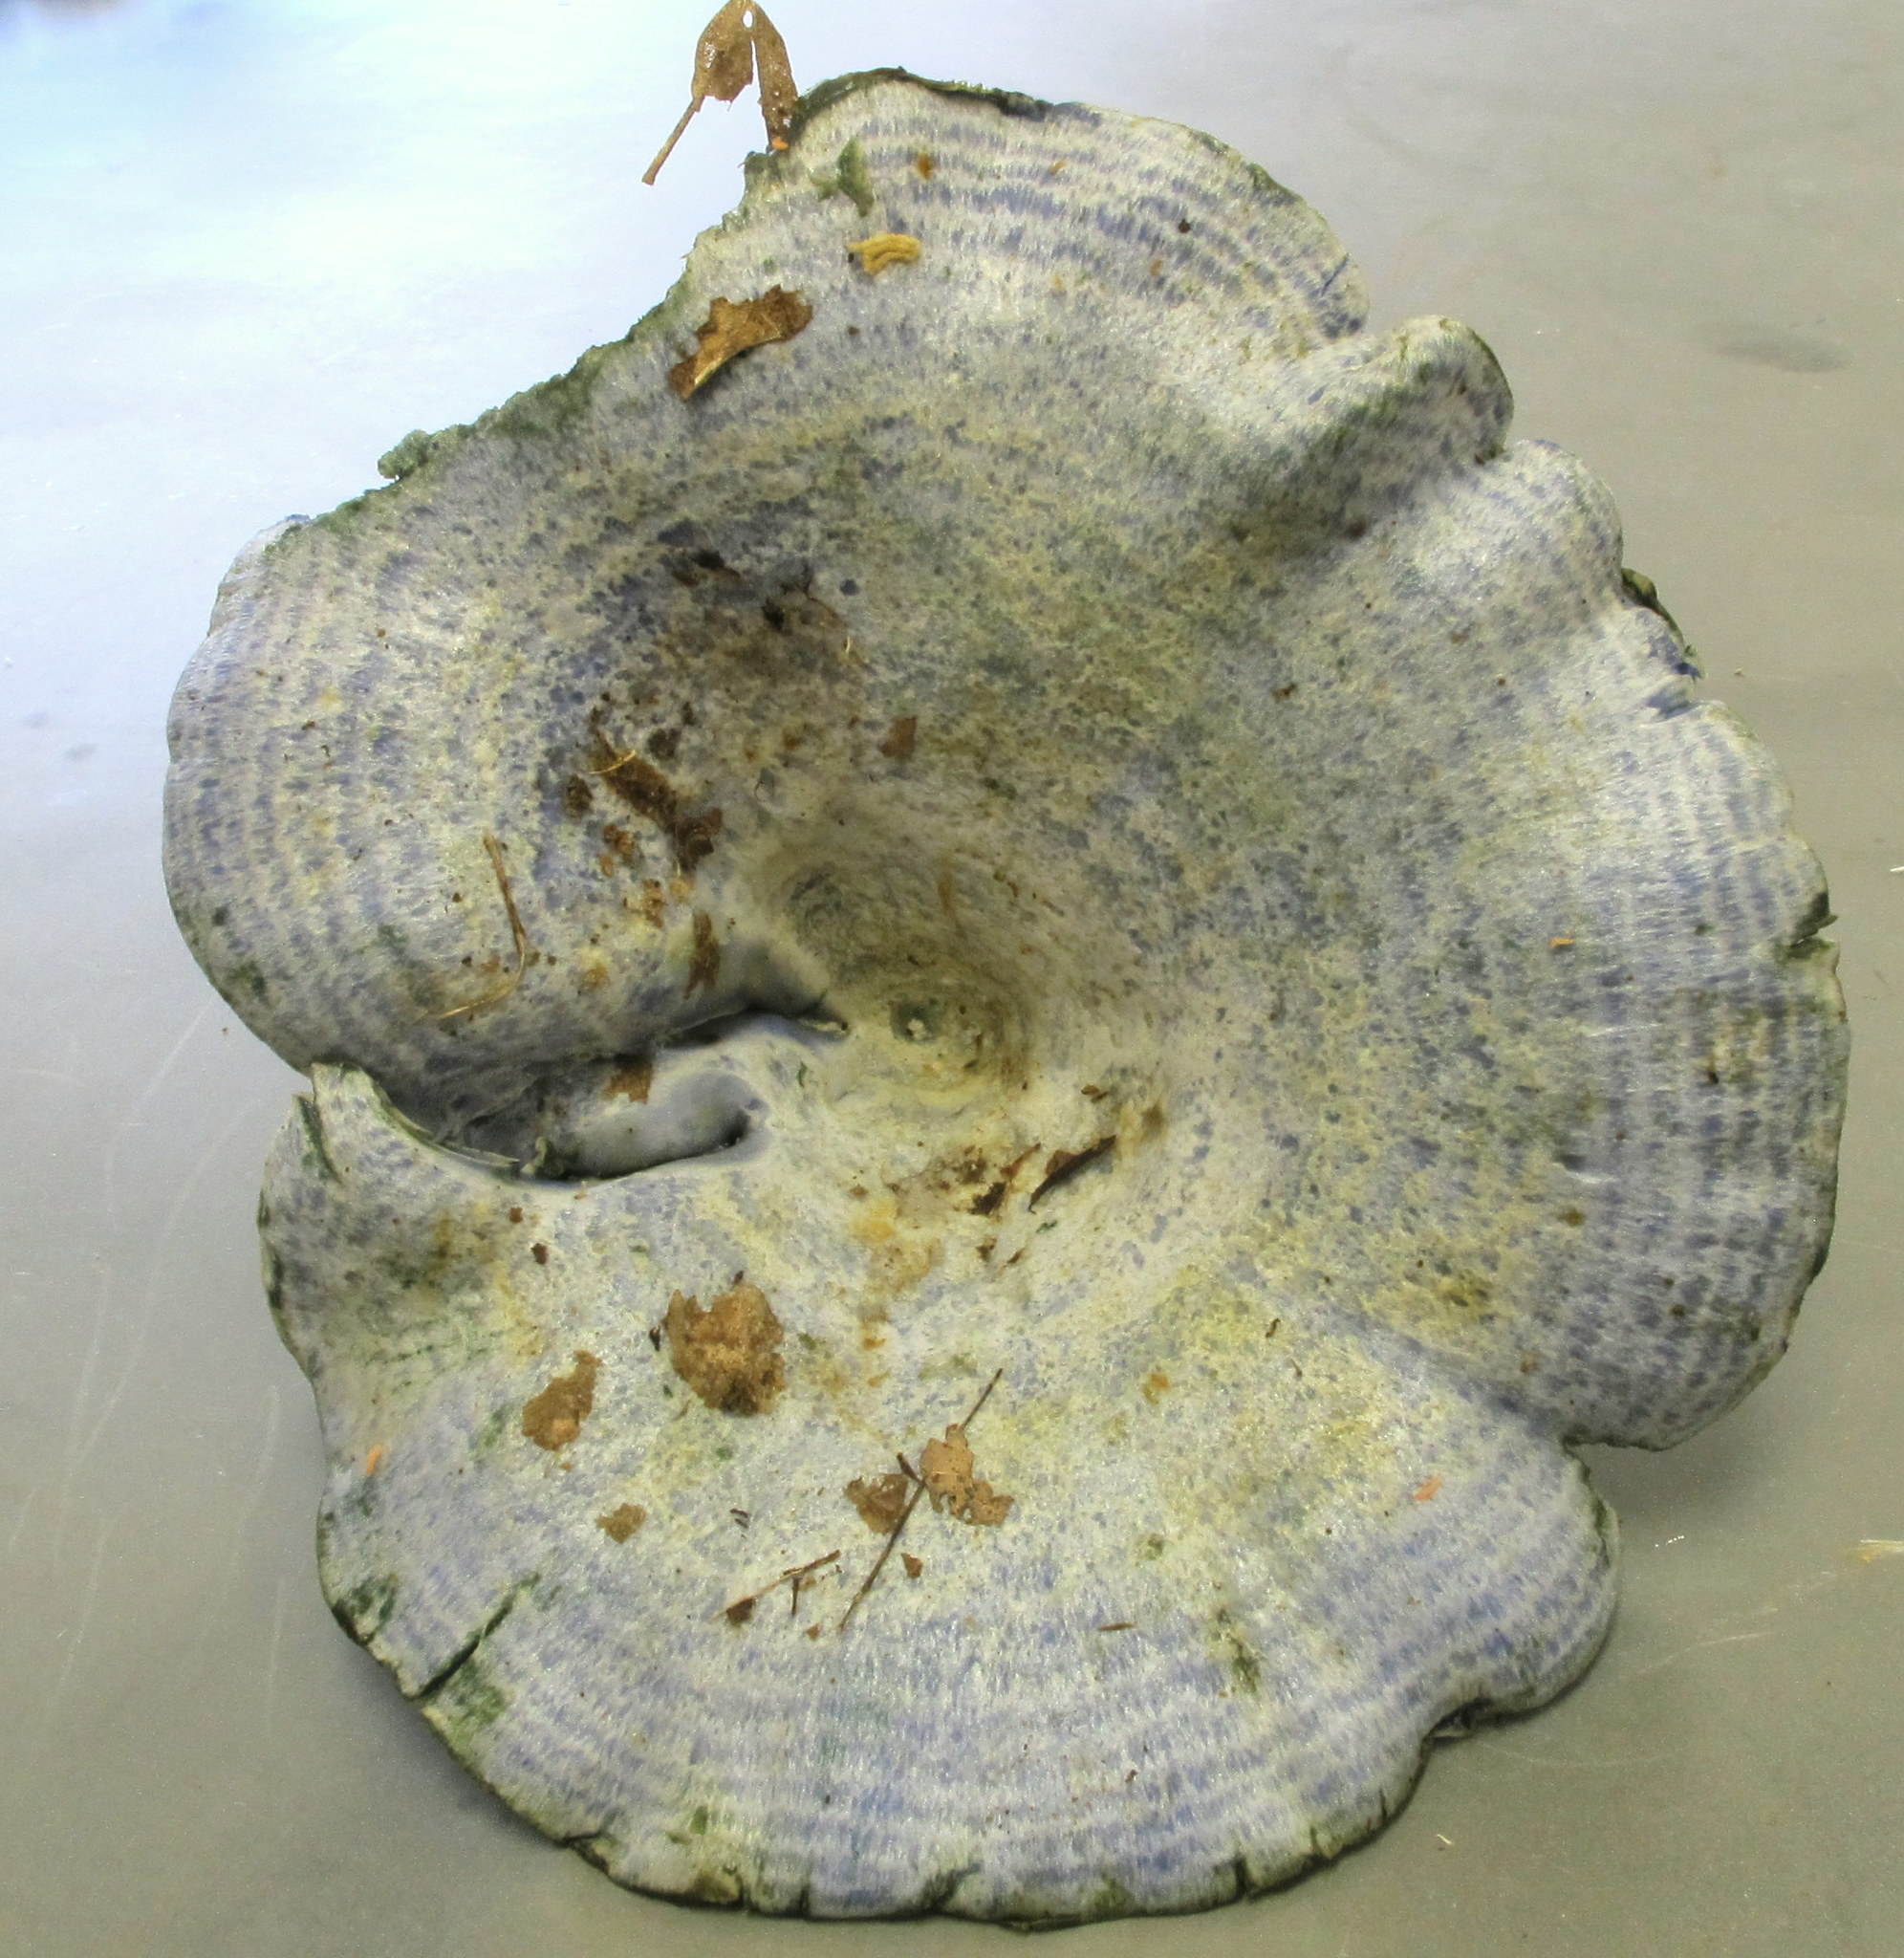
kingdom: Fungi
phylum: Basidiomycota
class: Agaricomycetes
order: Russulales
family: Russulaceae
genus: Lactarius
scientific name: Lactarius indigo
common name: Indigo milk cap
